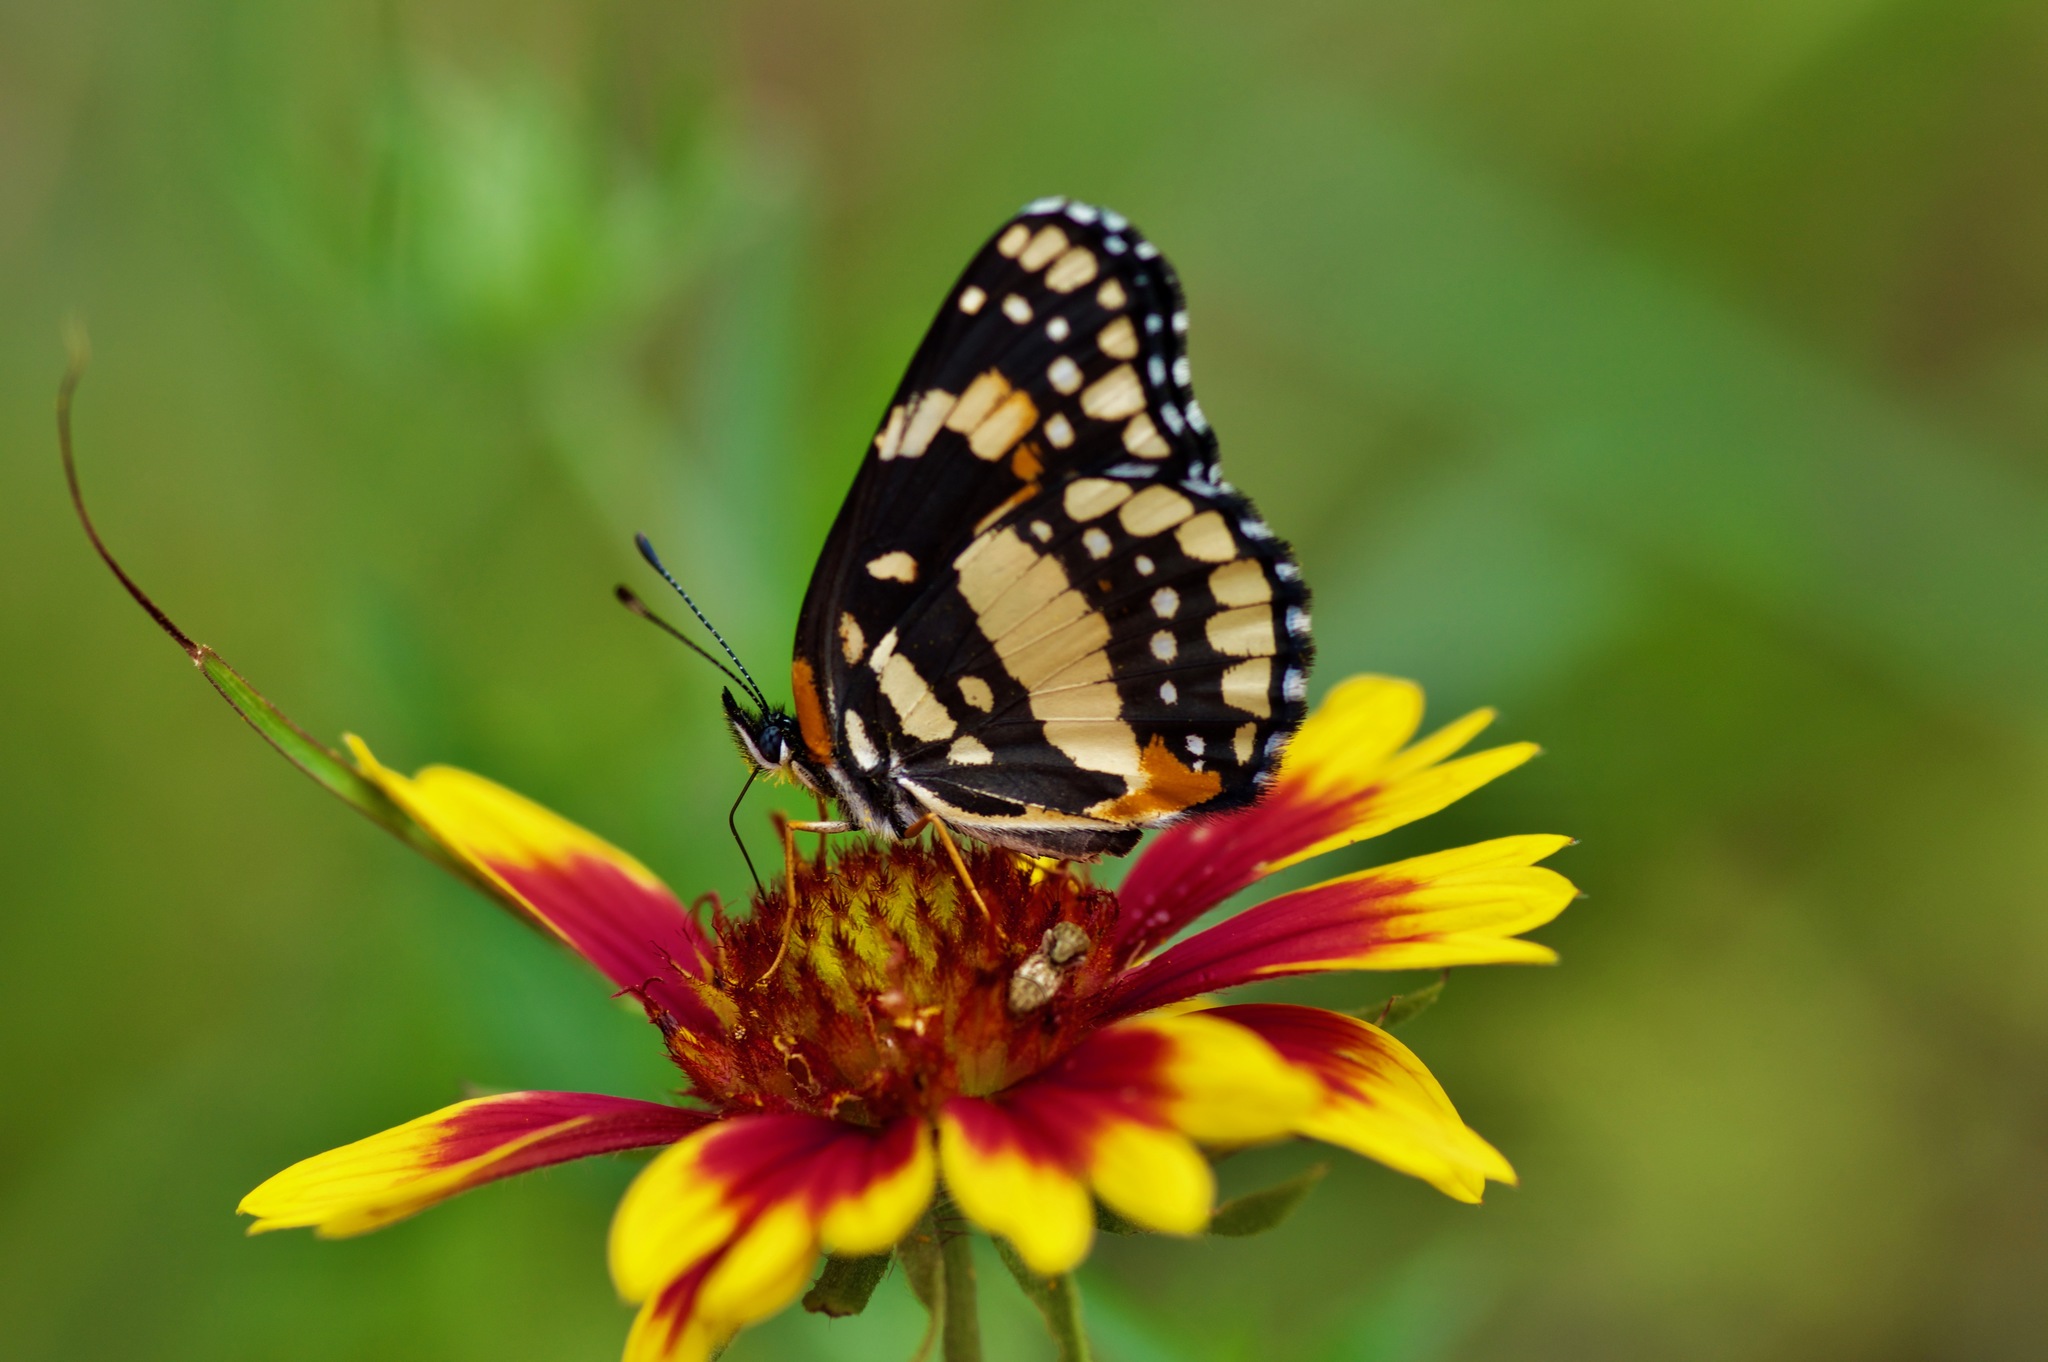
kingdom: Animalia
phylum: Arthropoda
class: Insecta
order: Lepidoptera
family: Nymphalidae
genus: Chlosyne
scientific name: Chlosyne lacinia
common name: Bordered patch
